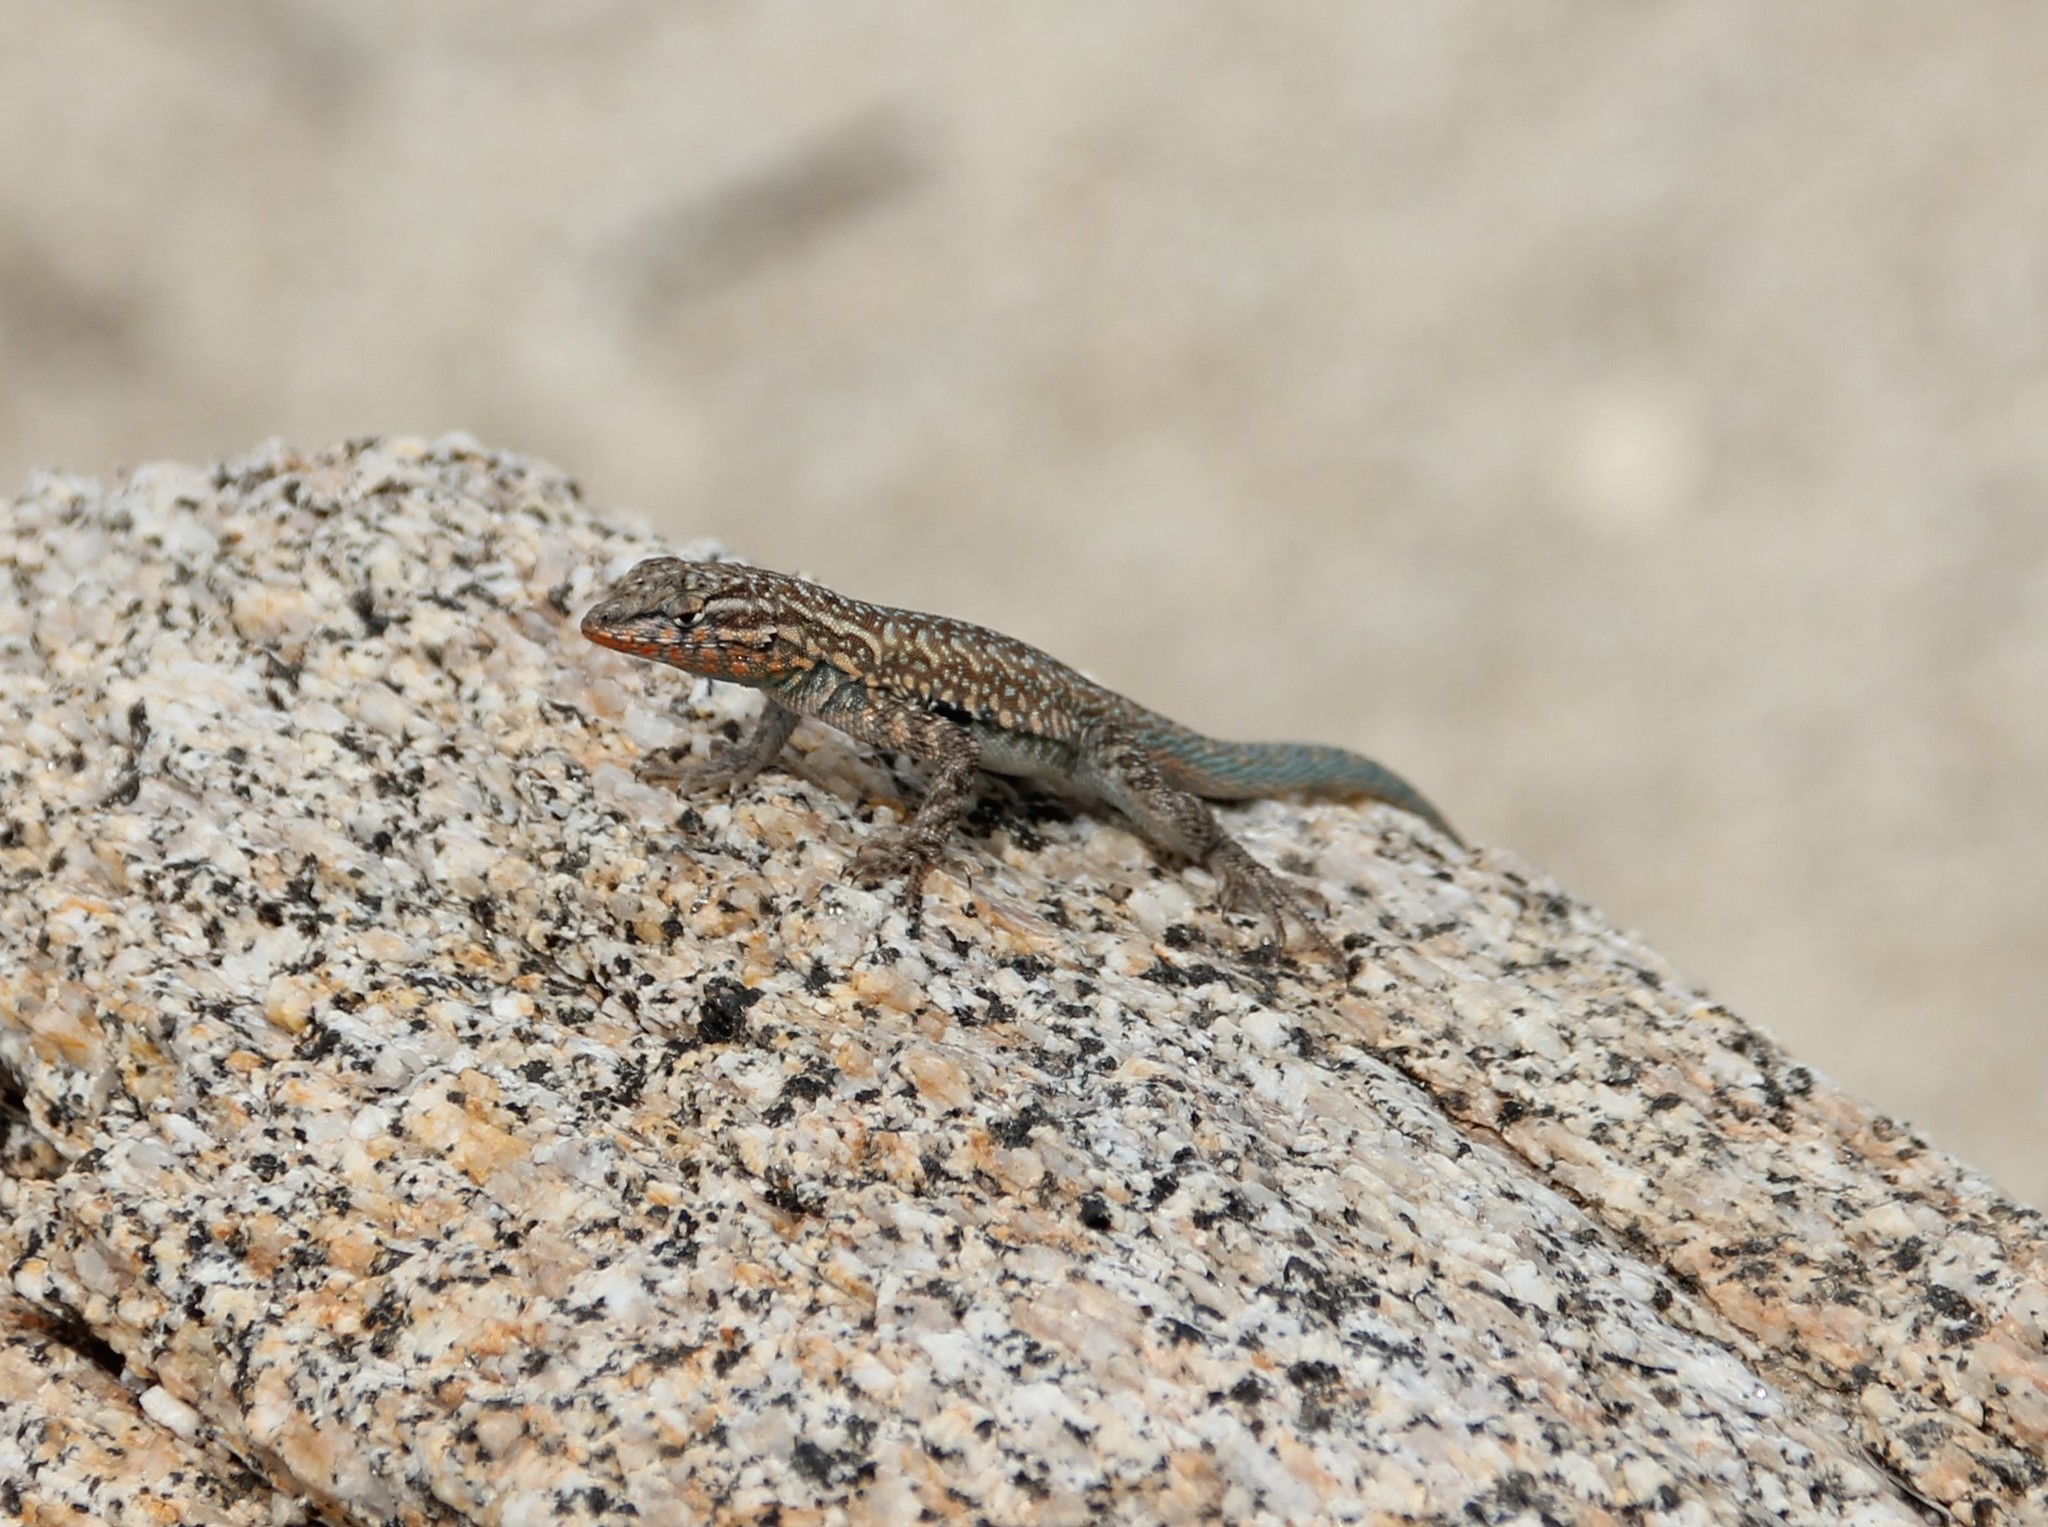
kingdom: Animalia
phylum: Chordata
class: Squamata
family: Phrynosomatidae
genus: Uta
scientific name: Uta stansburiana
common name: Side-blotched lizard
